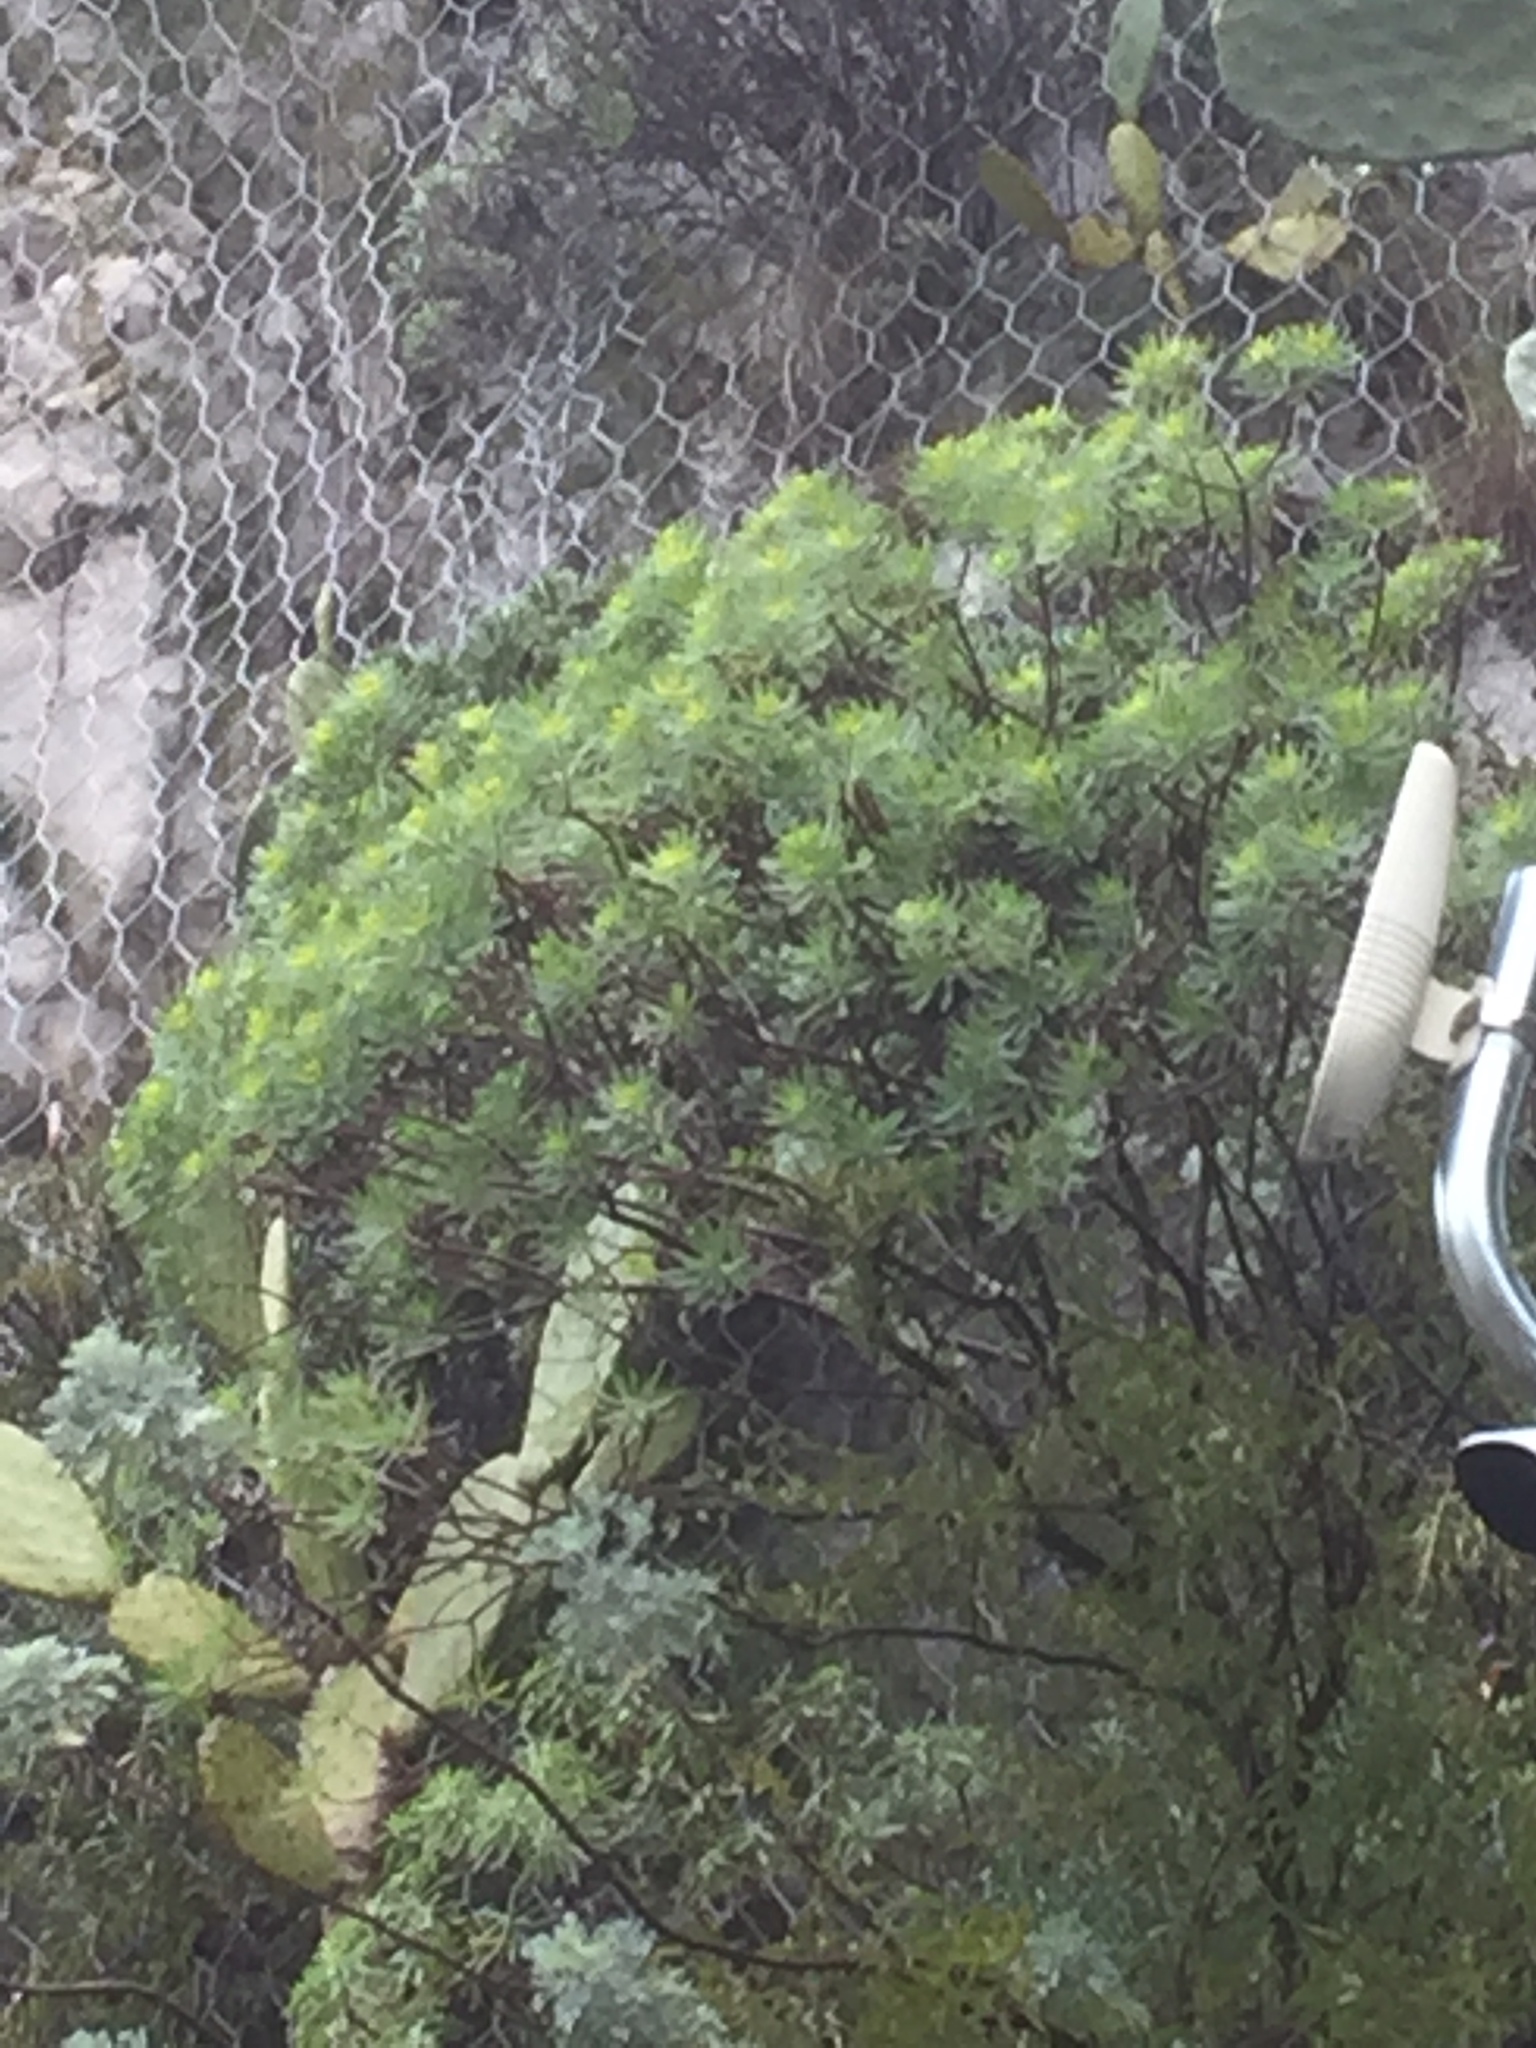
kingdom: Plantae
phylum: Tracheophyta
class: Magnoliopsida
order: Malpighiales
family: Euphorbiaceae
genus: Euphorbia
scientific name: Euphorbia dendroides
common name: Tree spurge
